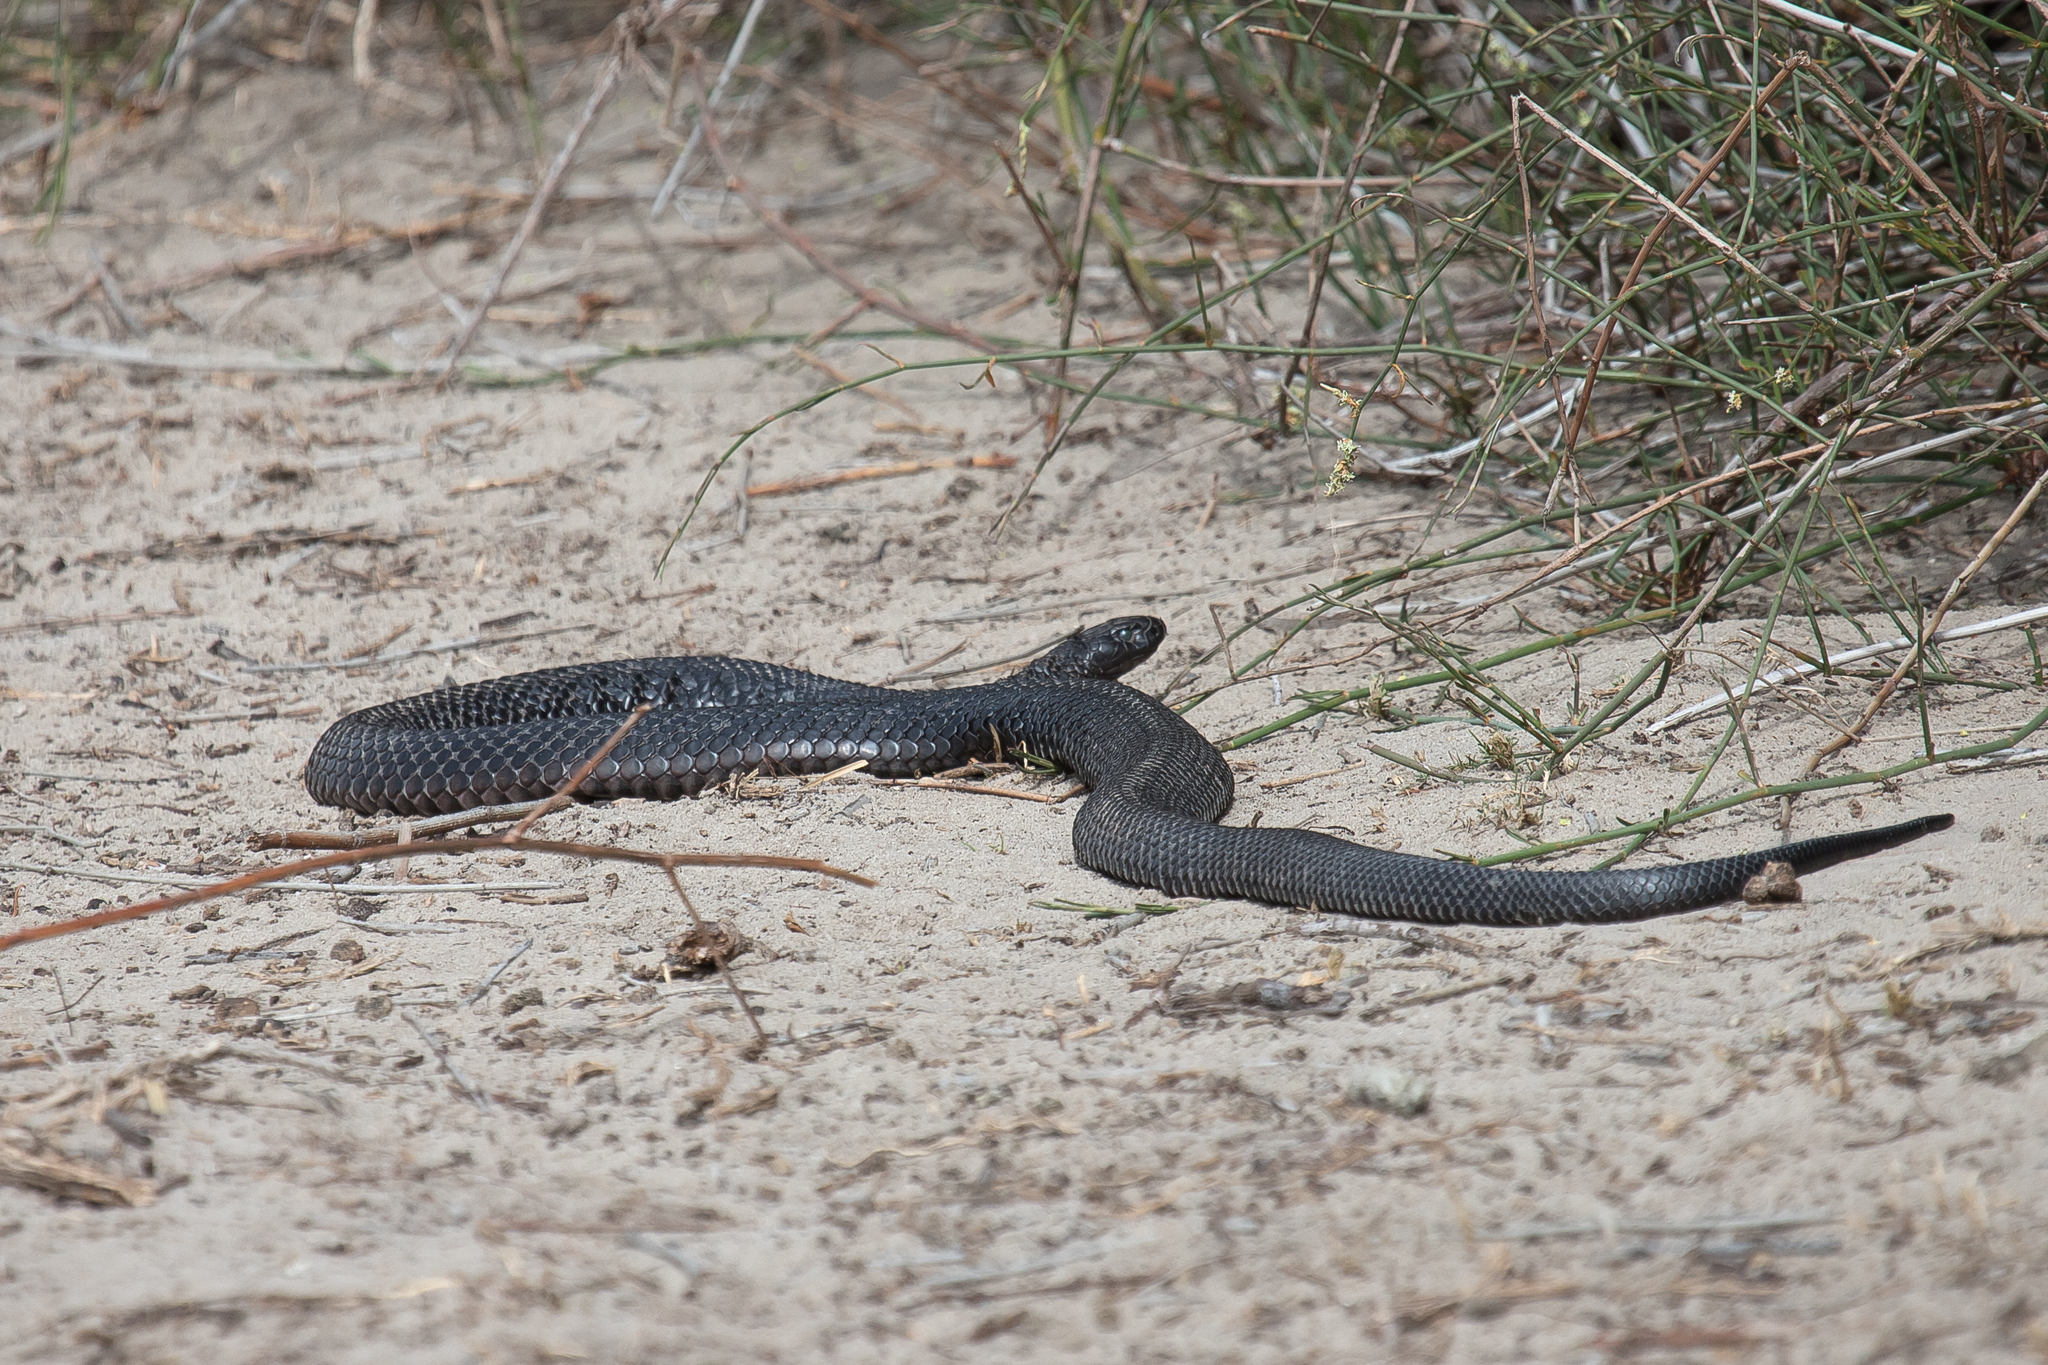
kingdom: Animalia
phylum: Chordata
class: Squamata
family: Elapidae
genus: Pseudechis
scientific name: Pseudechis porphyriacus
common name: Australian black snake
